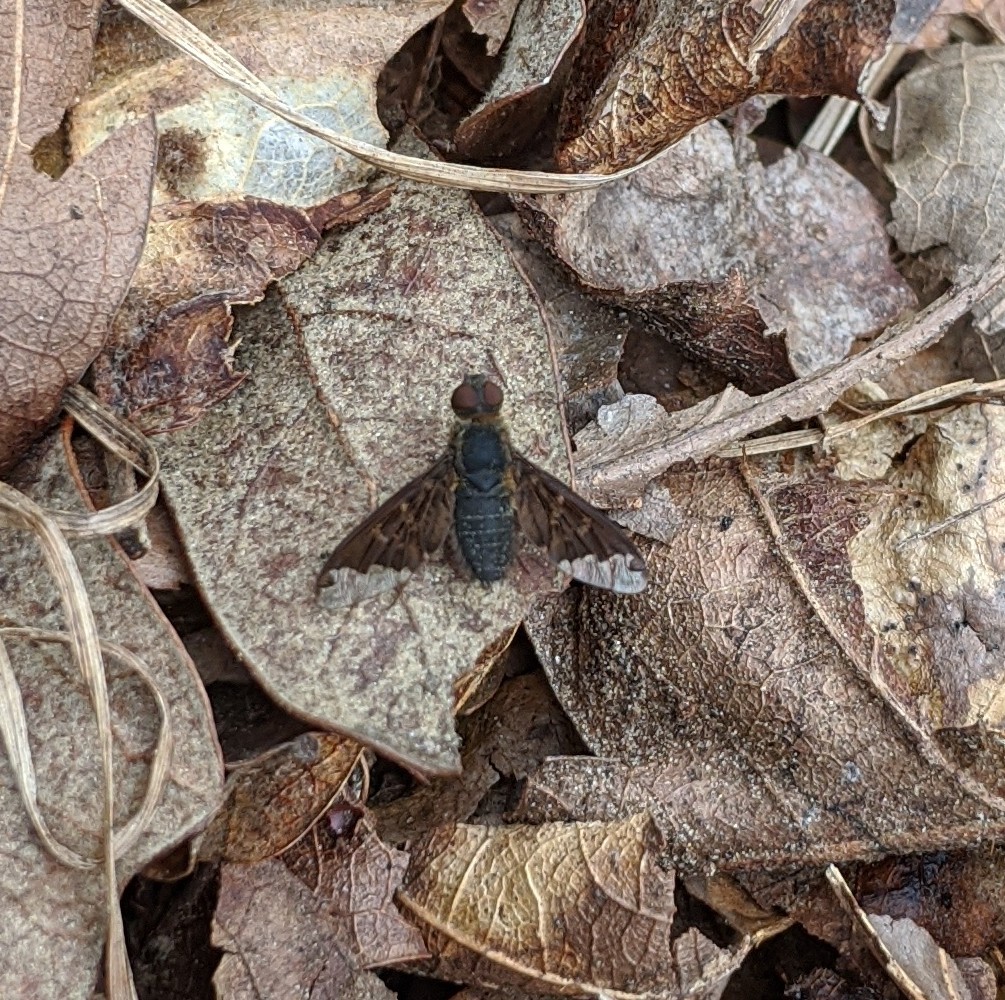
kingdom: Animalia
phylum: Arthropoda
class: Insecta
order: Diptera
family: Bombyliidae
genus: Hemipenthes
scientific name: Hemipenthes sinuosus
